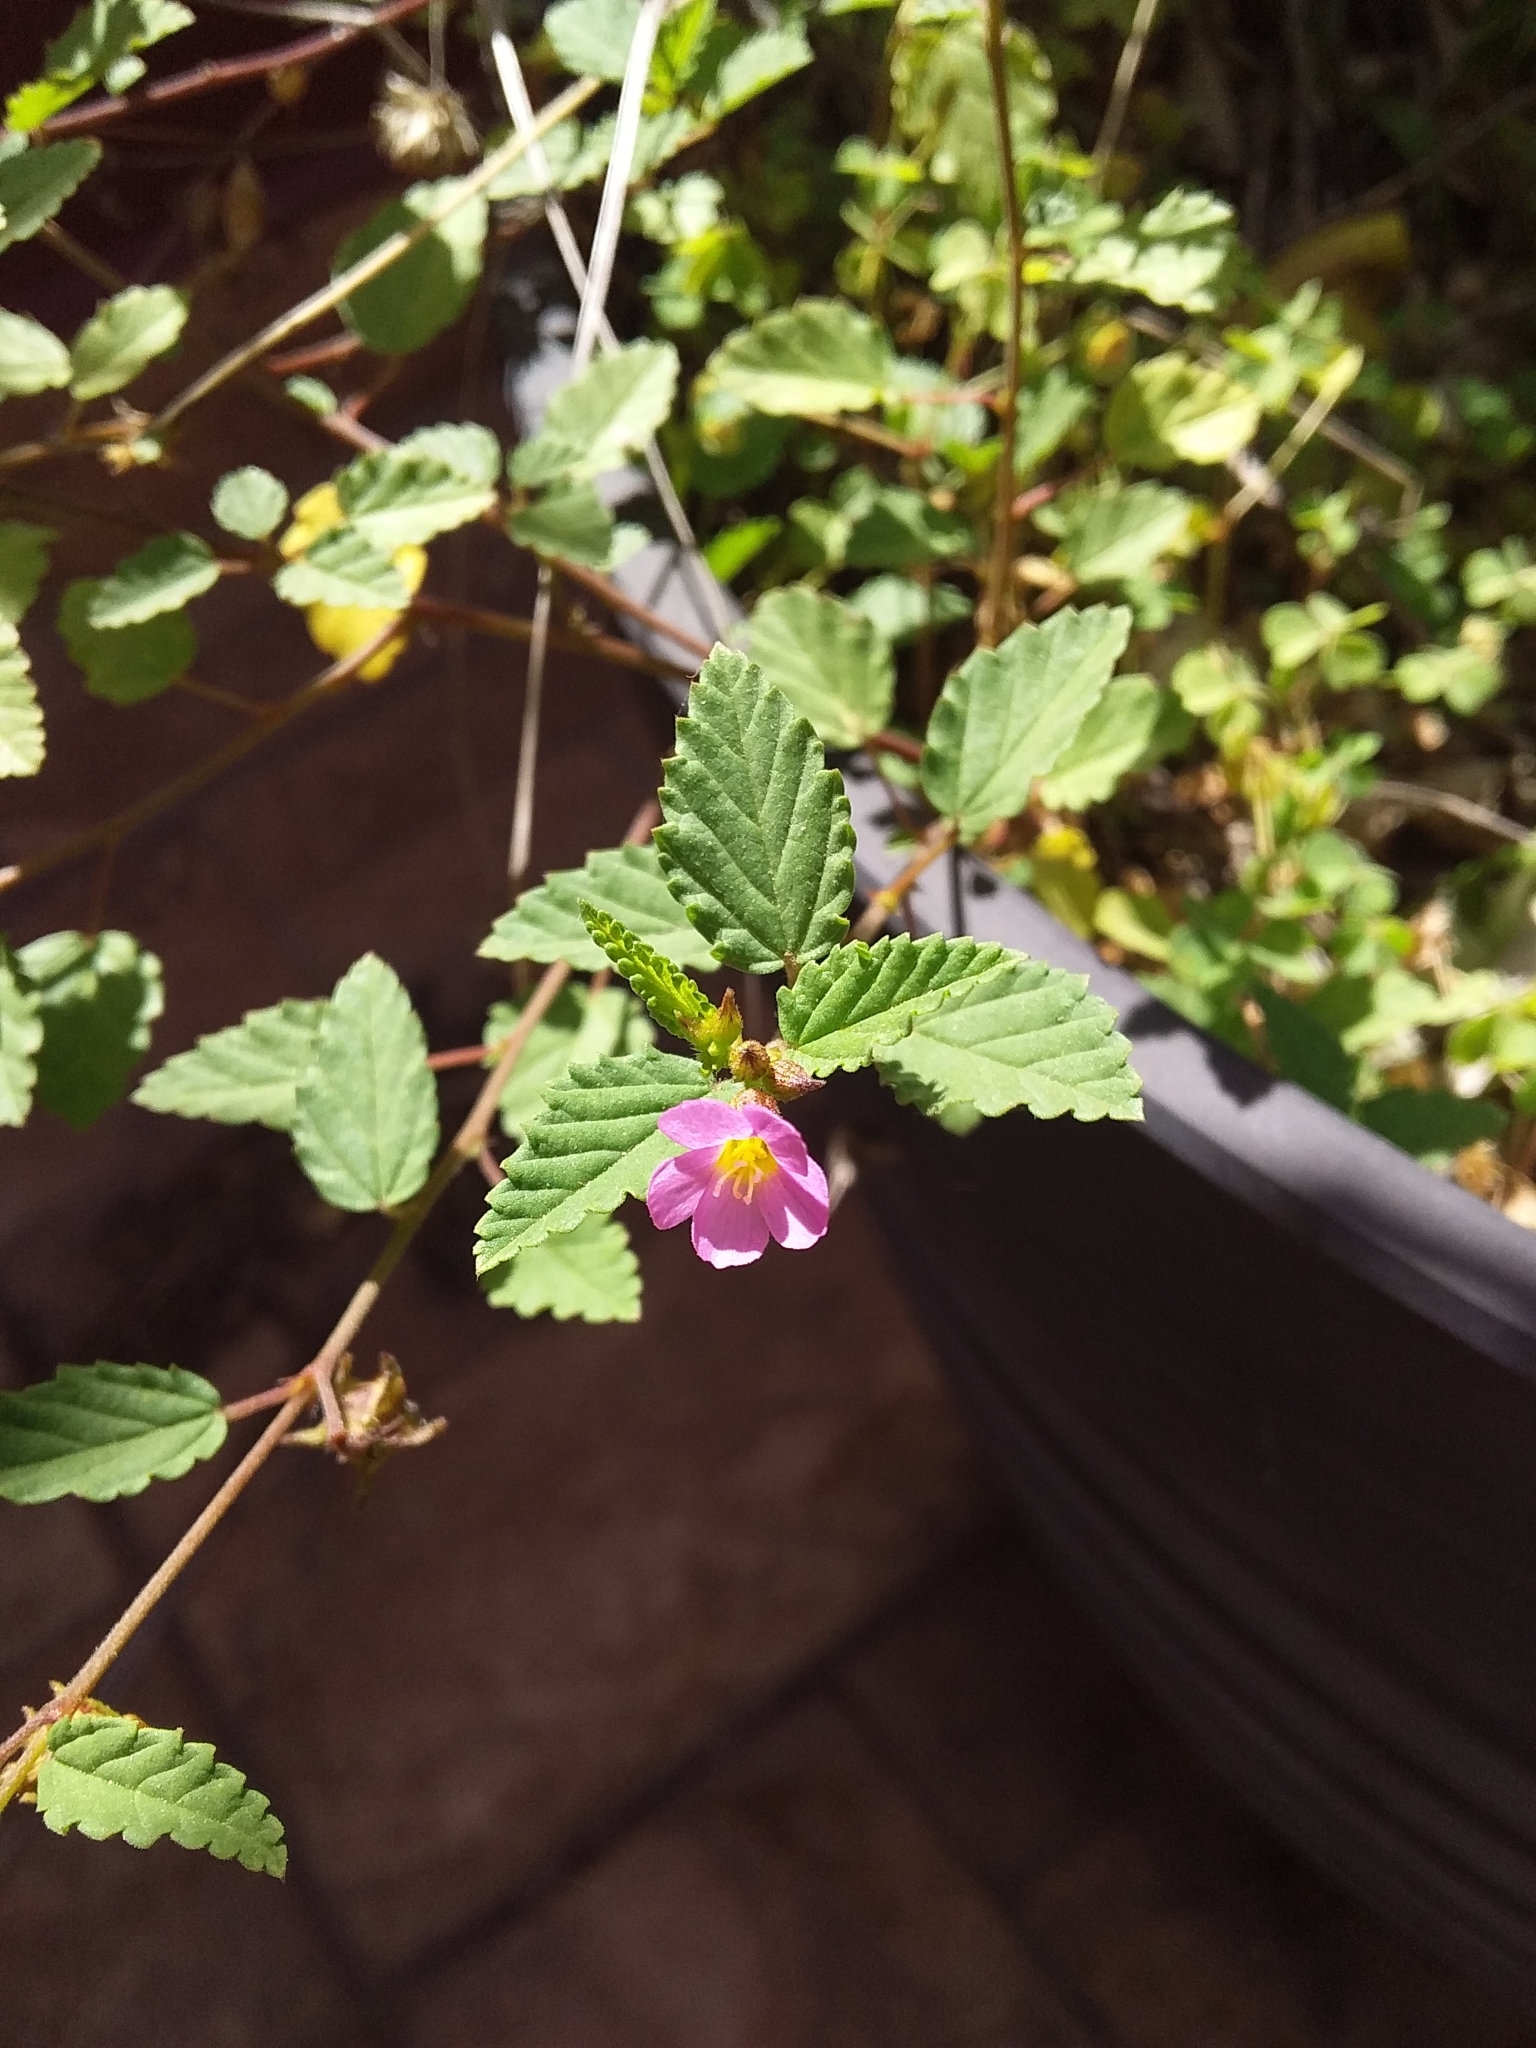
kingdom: Plantae
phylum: Tracheophyta
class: Magnoliopsida
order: Malvales
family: Malvaceae
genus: Melochia
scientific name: Melochia pyramidata
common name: Pyramidflower
